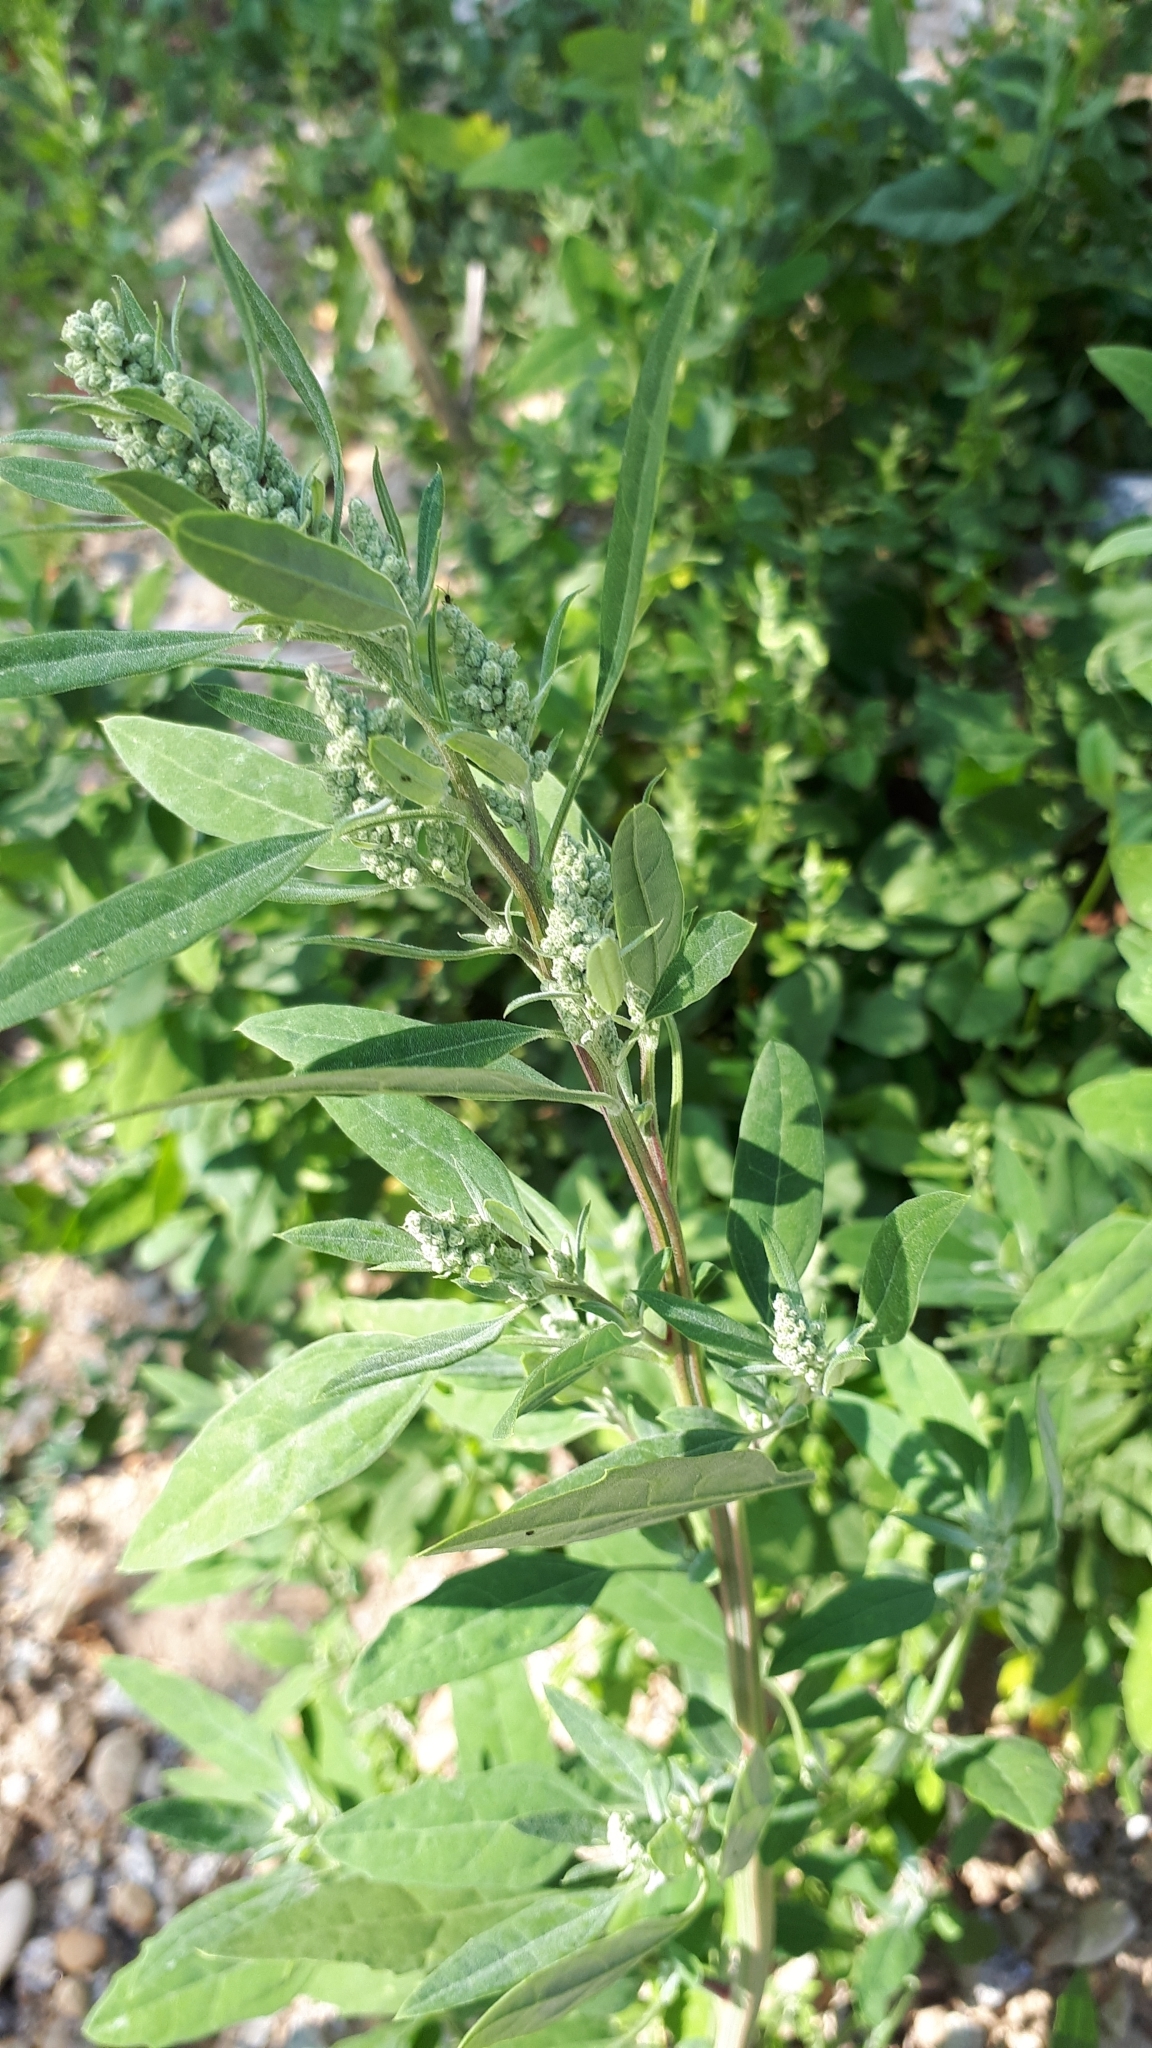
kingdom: Plantae
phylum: Tracheophyta
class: Magnoliopsida
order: Caryophyllales
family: Amaranthaceae
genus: Chenopodium
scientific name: Chenopodium album
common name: Fat-hen
